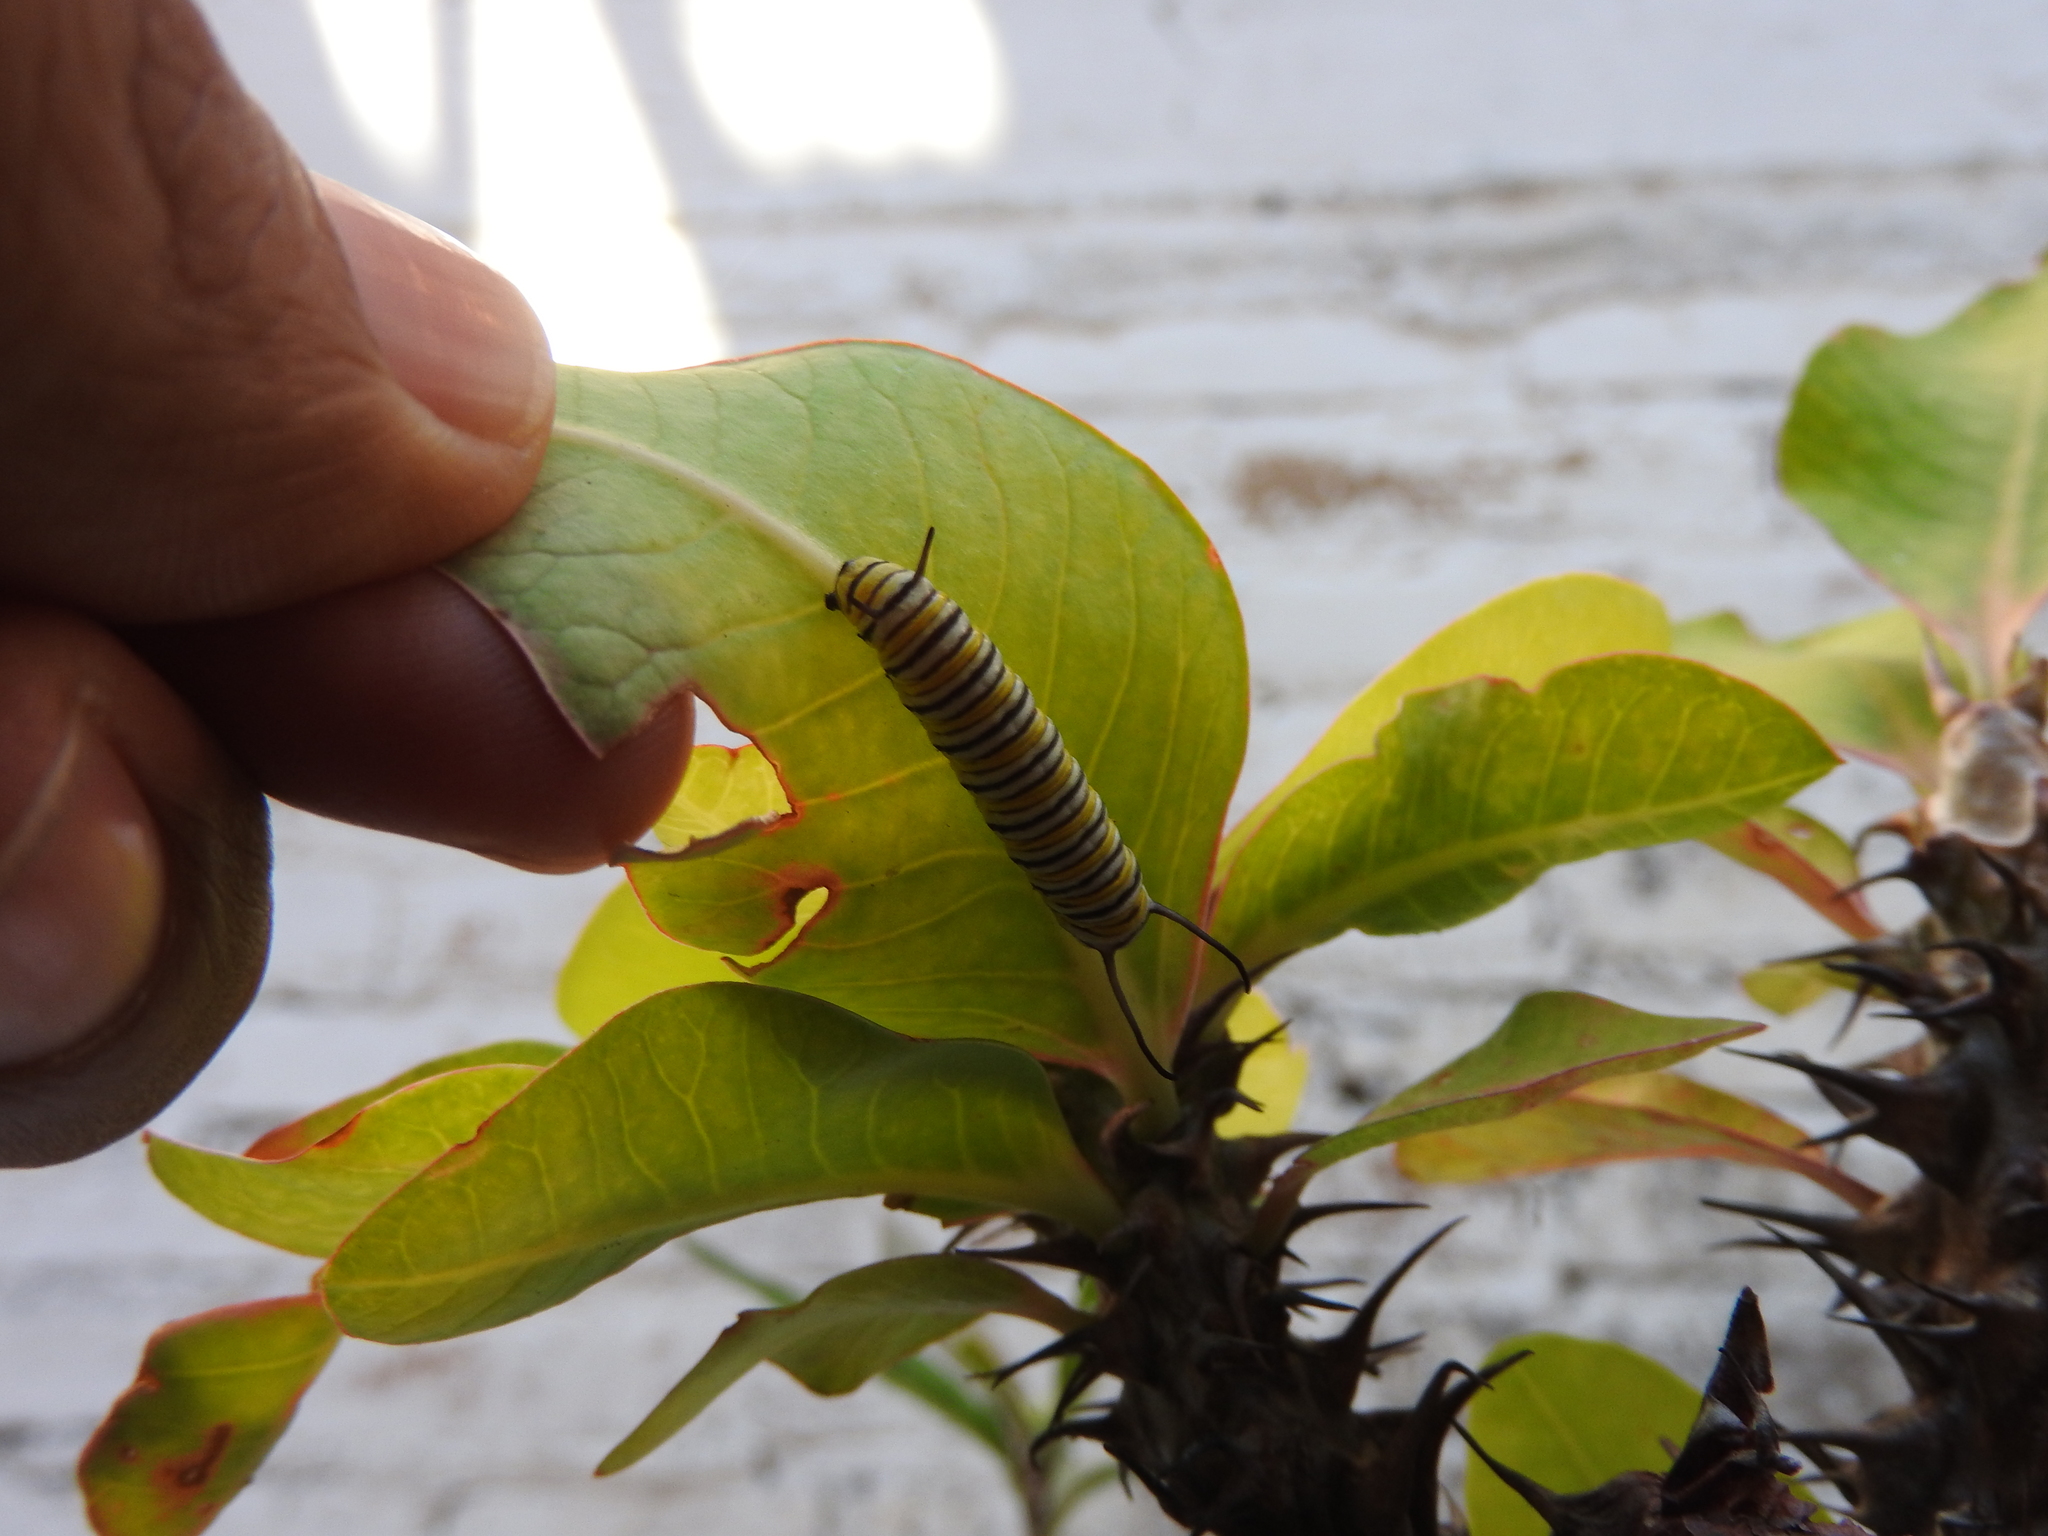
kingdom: Animalia
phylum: Arthropoda
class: Insecta
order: Lepidoptera
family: Nymphalidae
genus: Danaus
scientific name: Danaus plexippus
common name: Monarch
